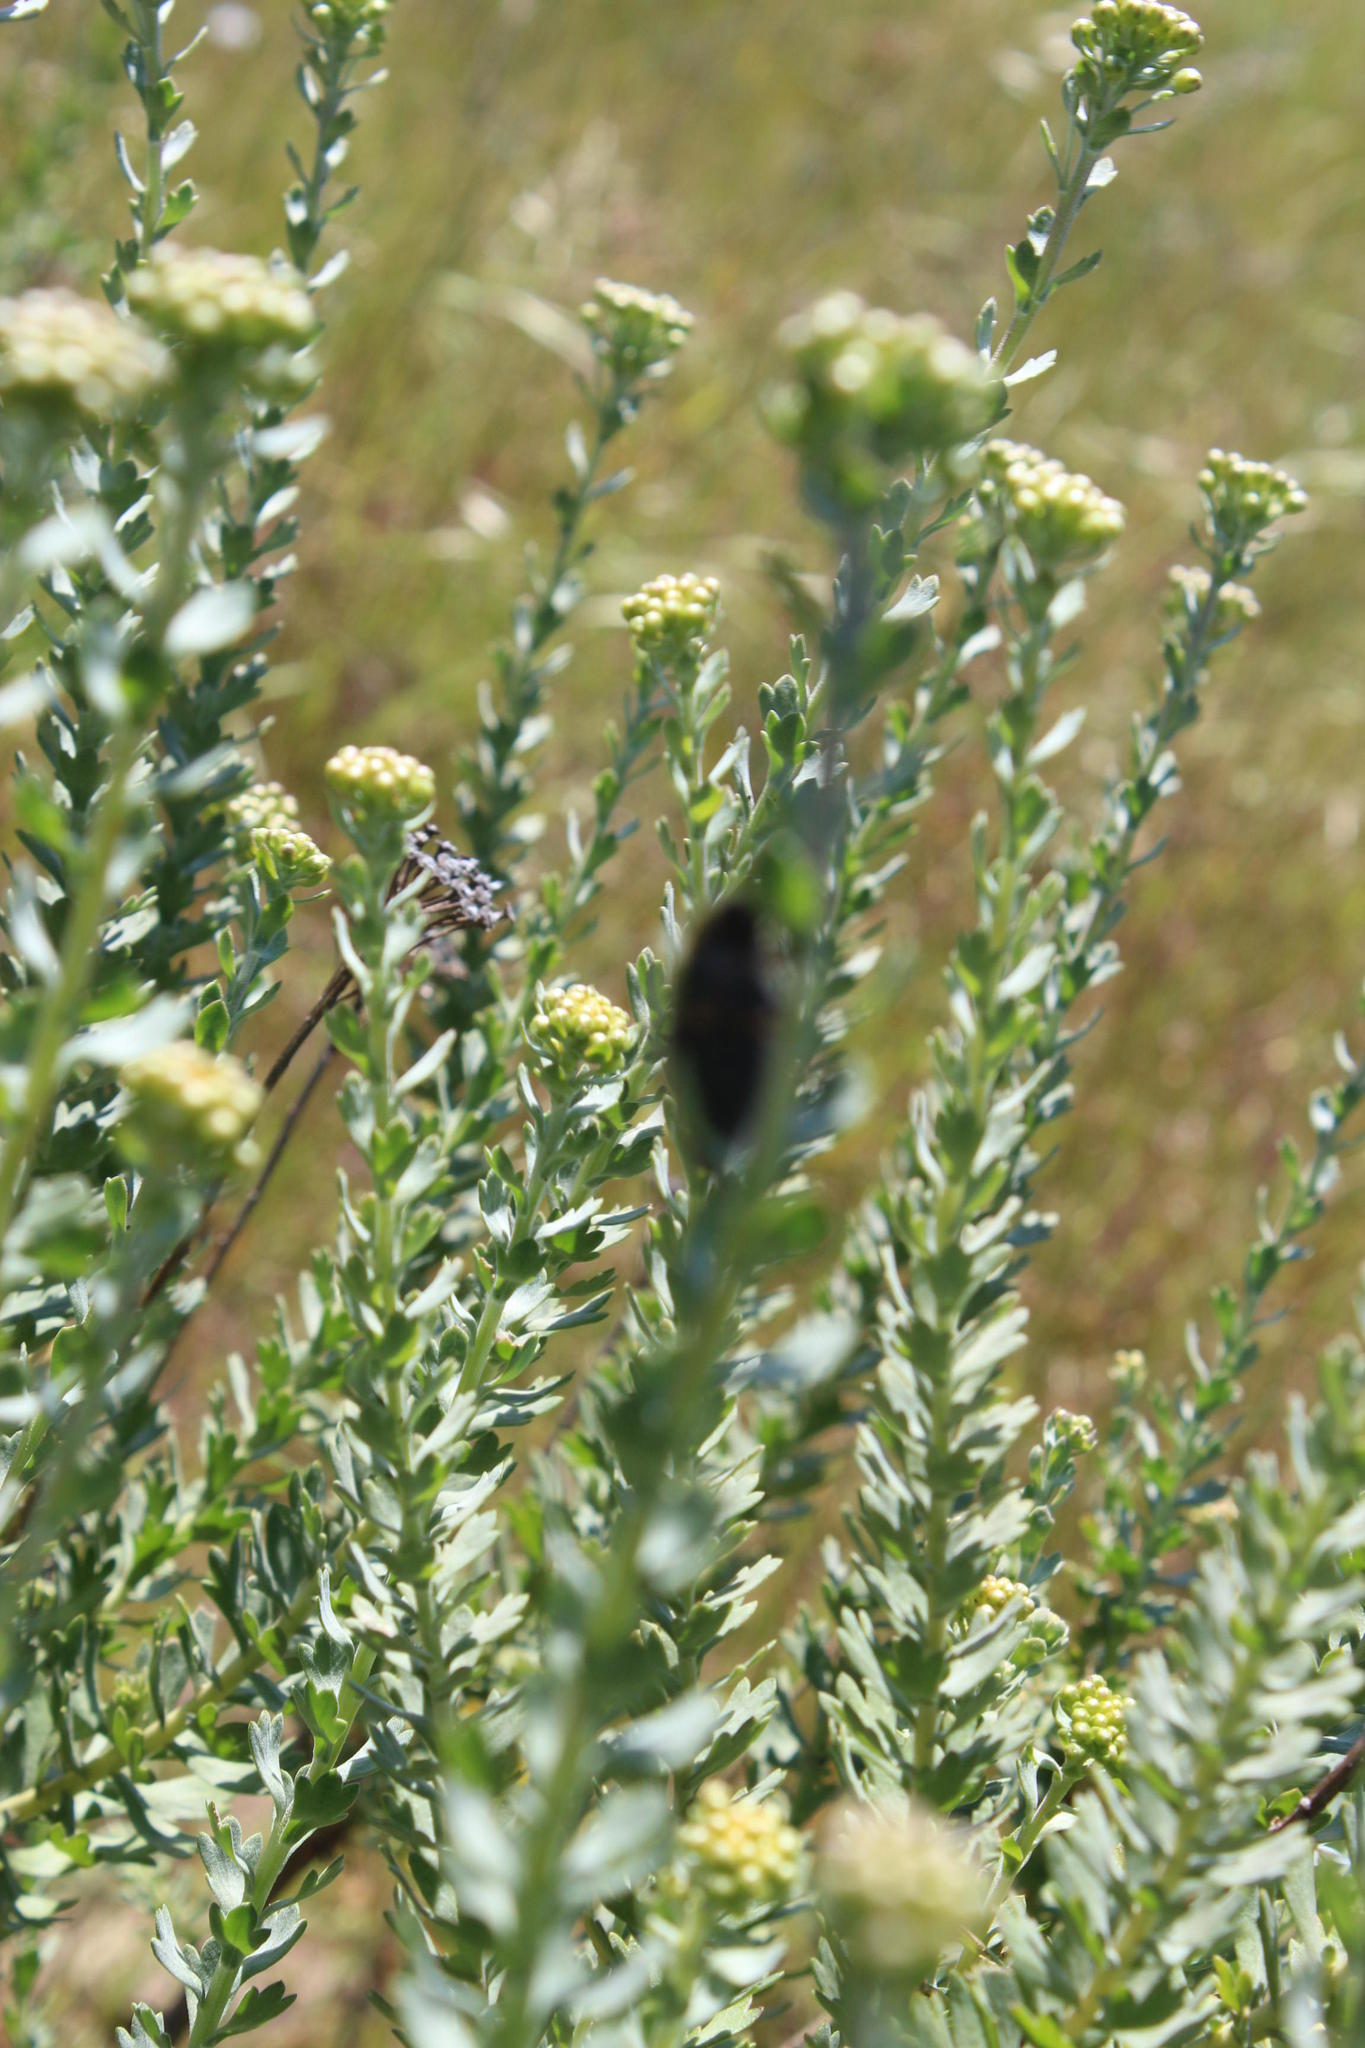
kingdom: Plantae
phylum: Tracheophyta
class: Magnoliopsida
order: Asterales
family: Asteraceae
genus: Athanasia
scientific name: Athanasia trifurcata
